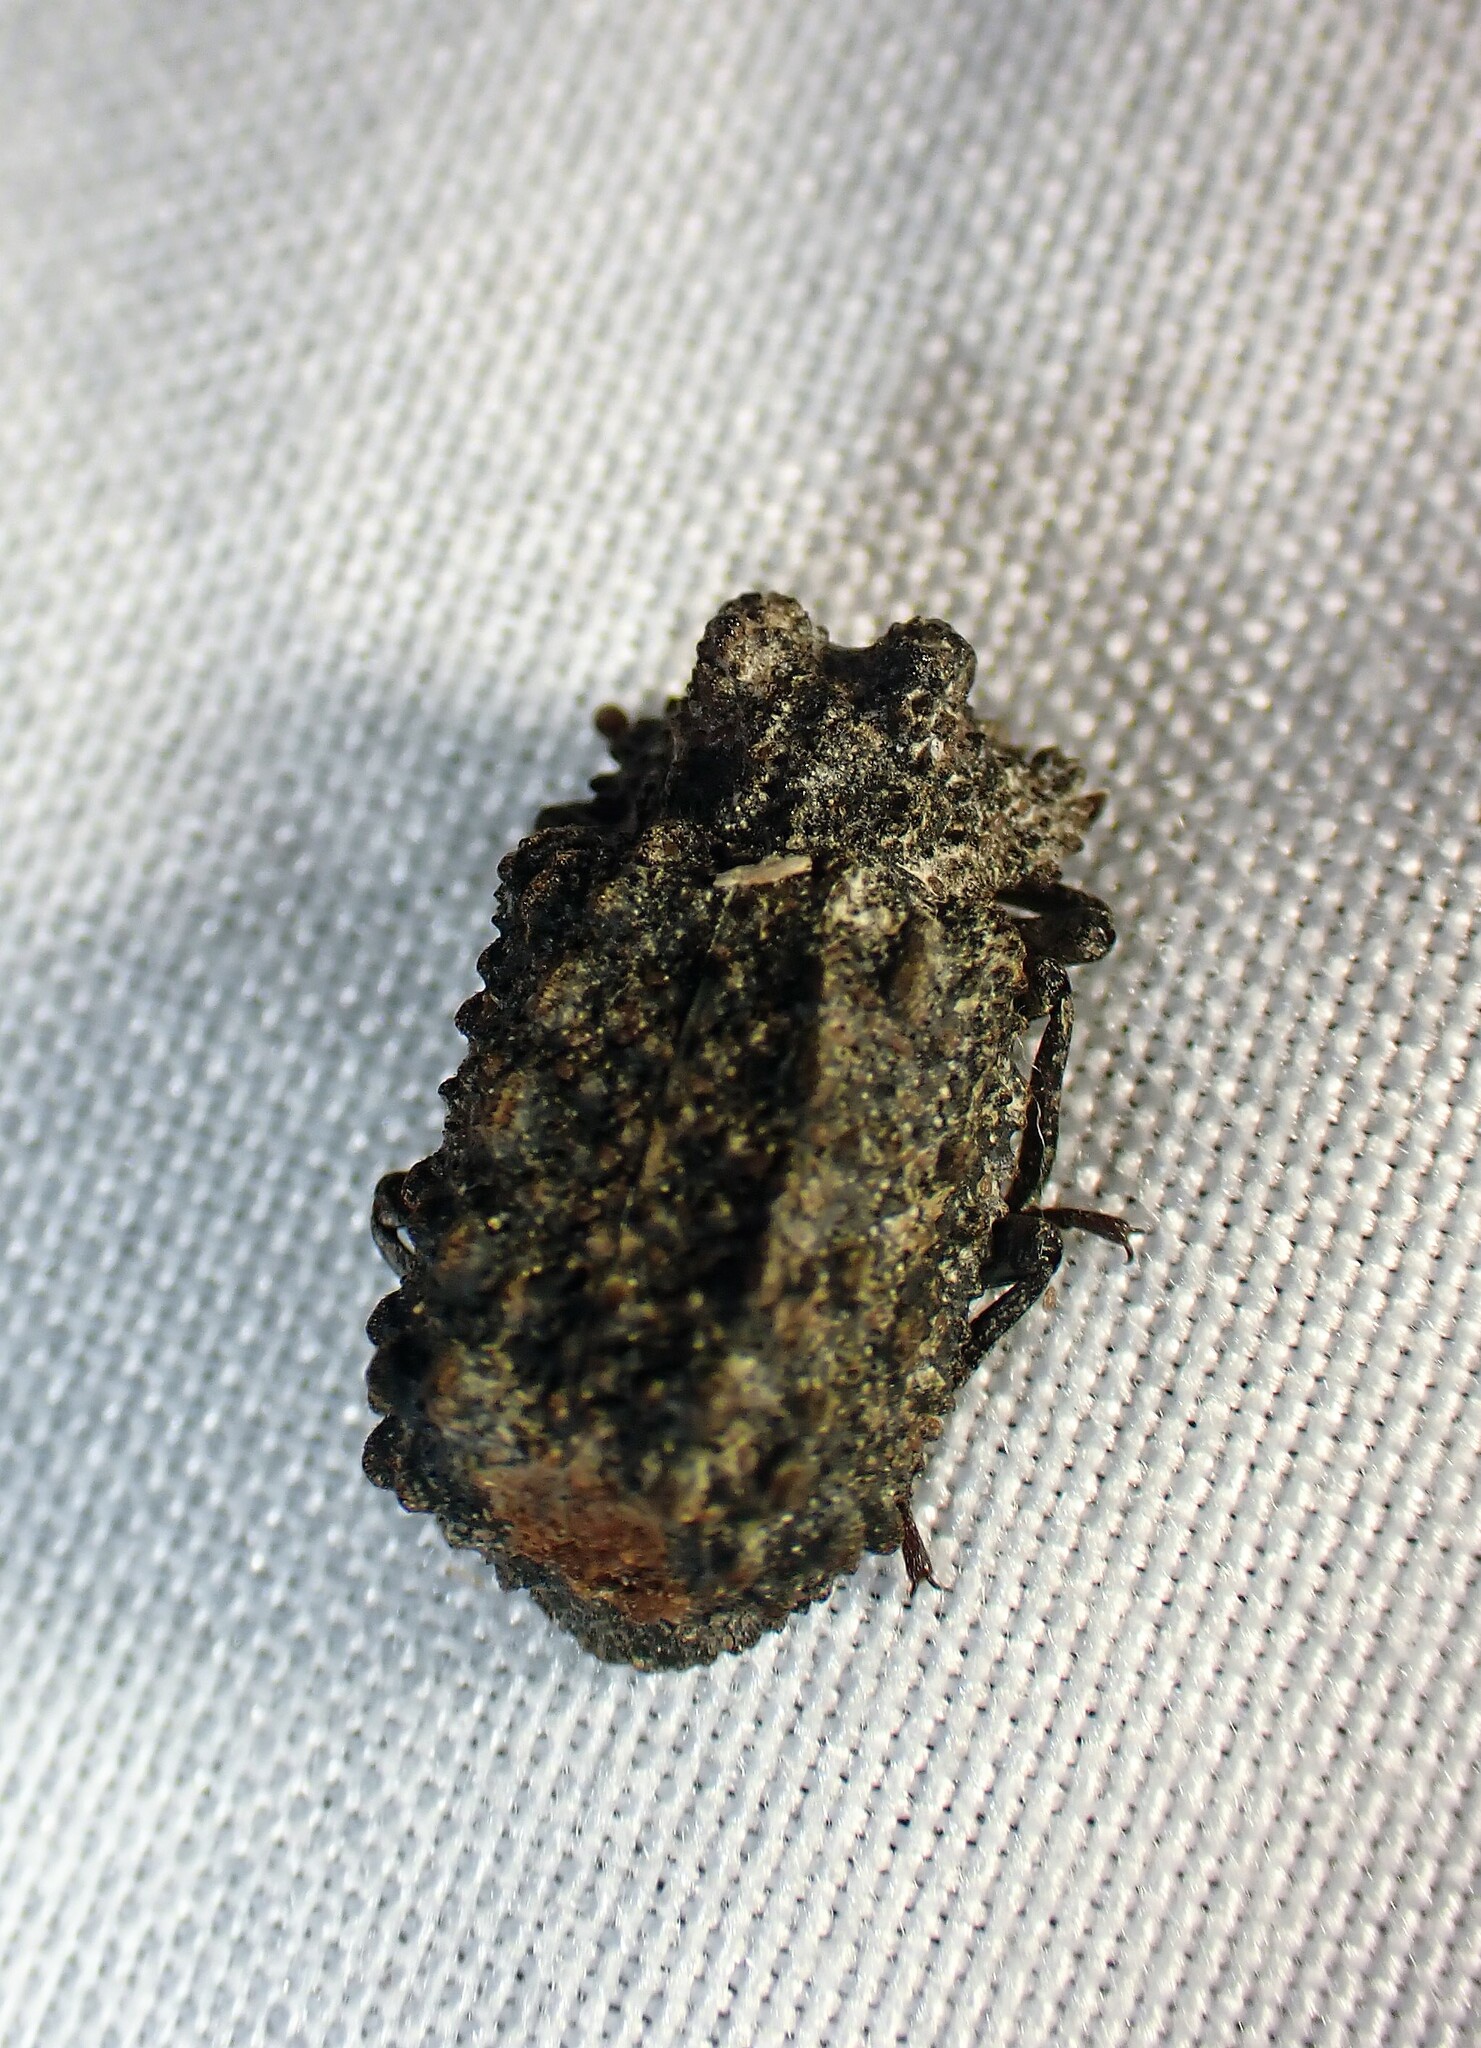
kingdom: Animalia
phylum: Arthropoda
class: Insecta
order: Coleoptera
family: Tenebrionidae
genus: Gnatocerus
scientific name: Gnatocerus cornutus
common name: Broad-horned flour beetle
